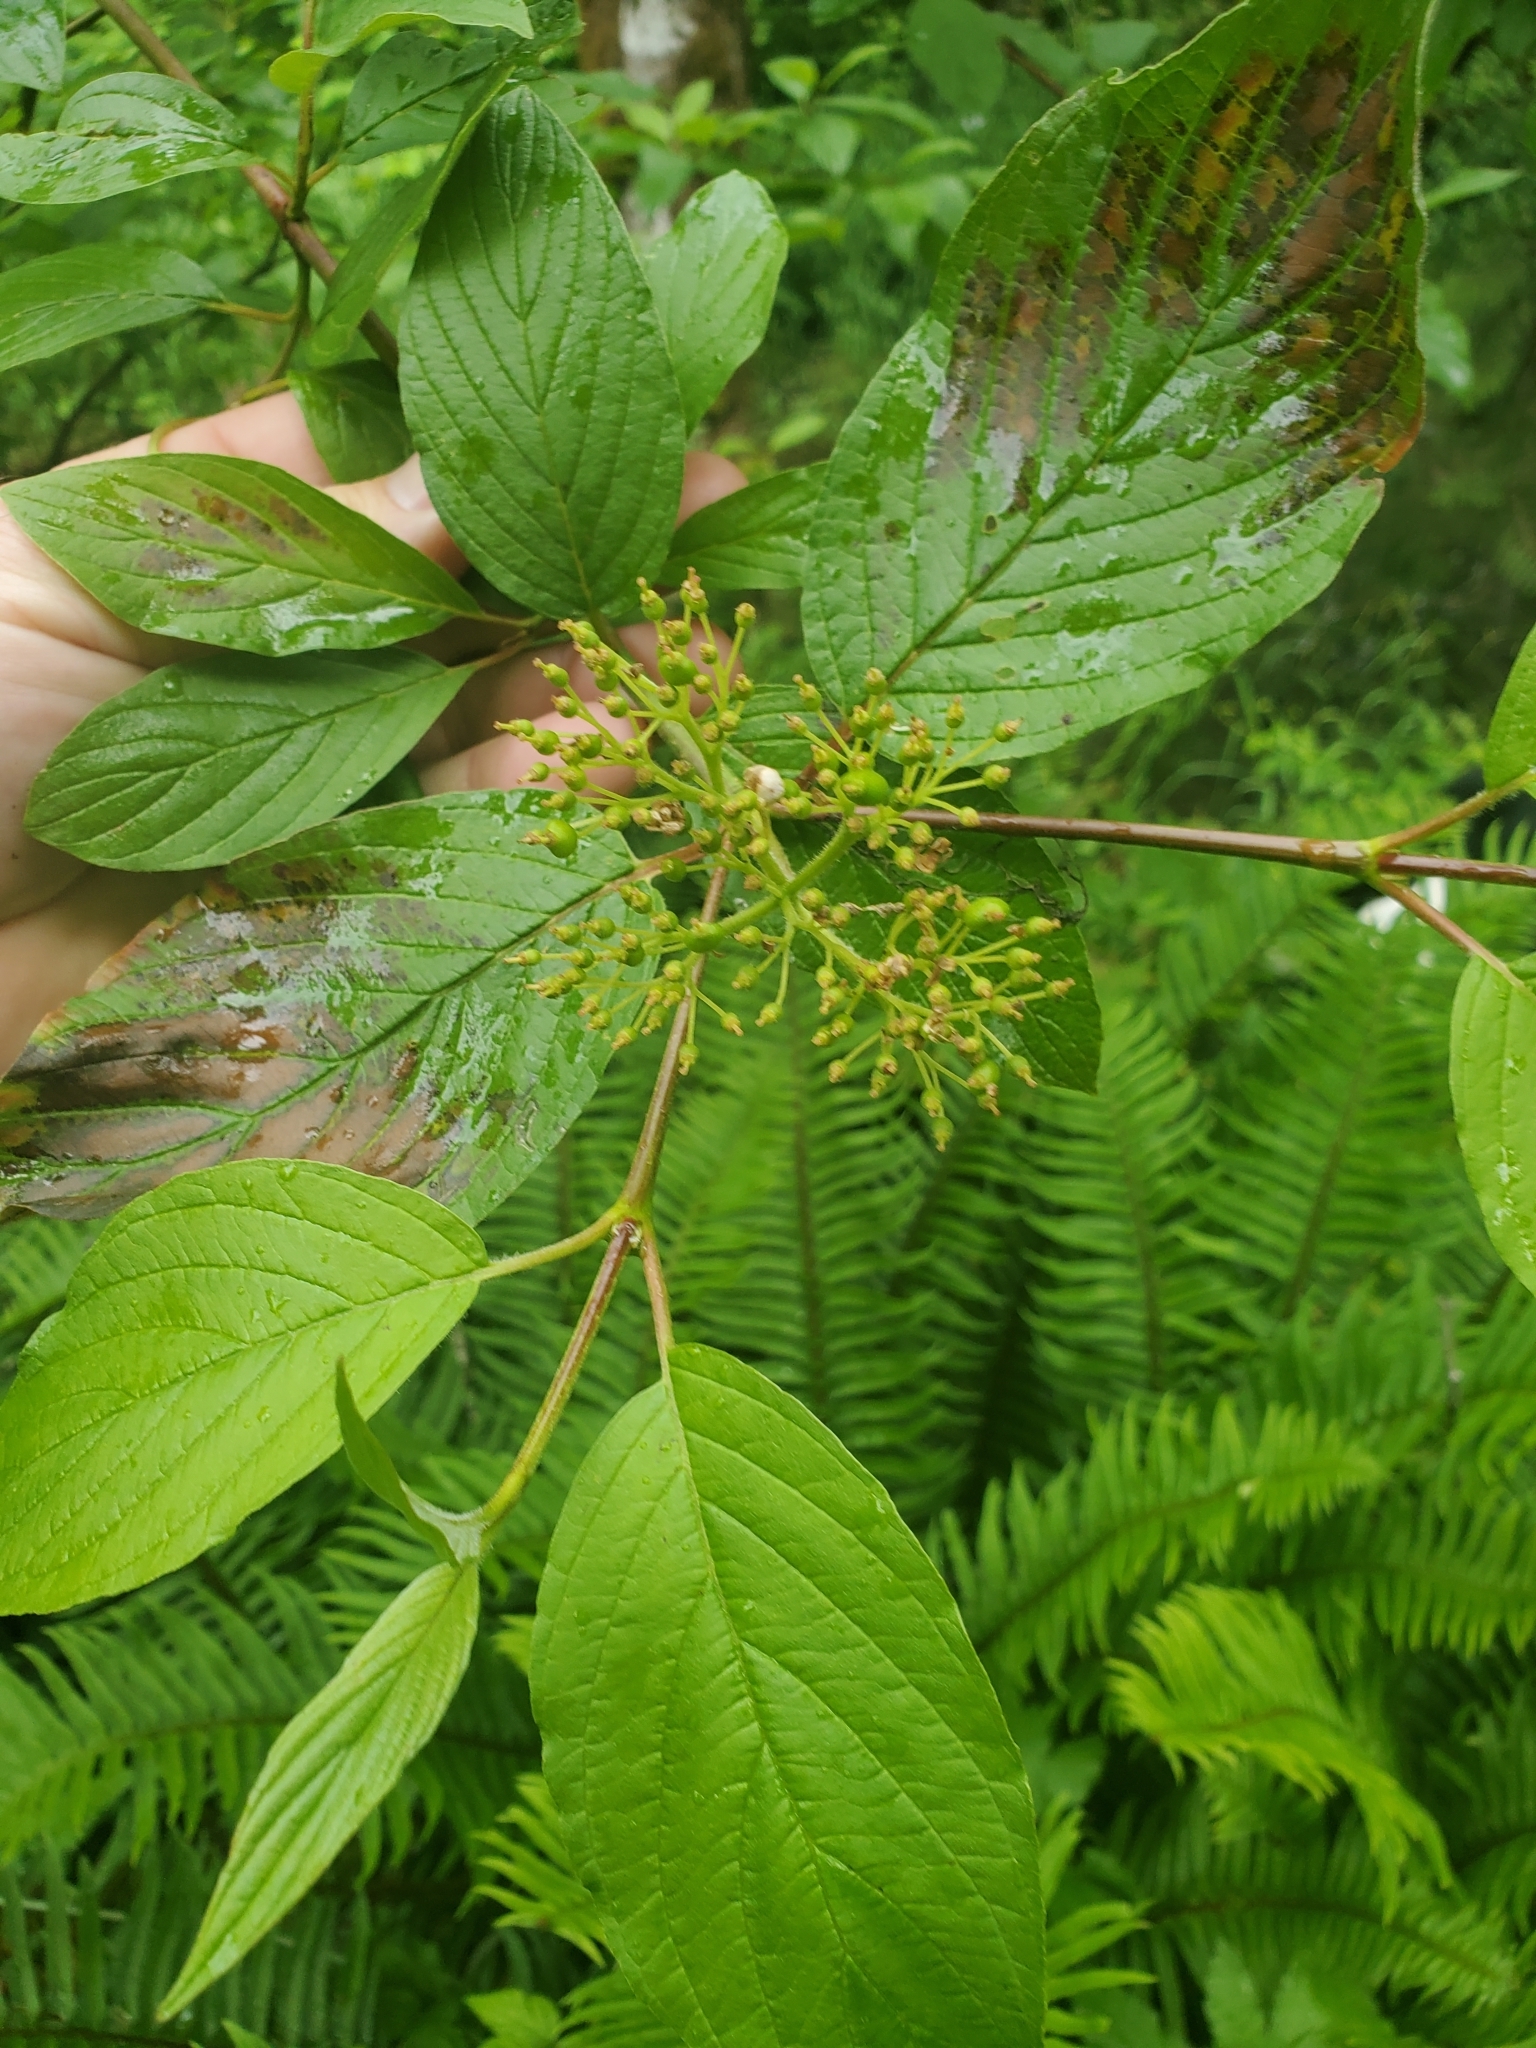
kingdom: Plantae
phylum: Tracheophyta
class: Magnoliopsida
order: Cornales
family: Cornaceae
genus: Cornus
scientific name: Cornus sericea
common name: Red-osier dogwood
